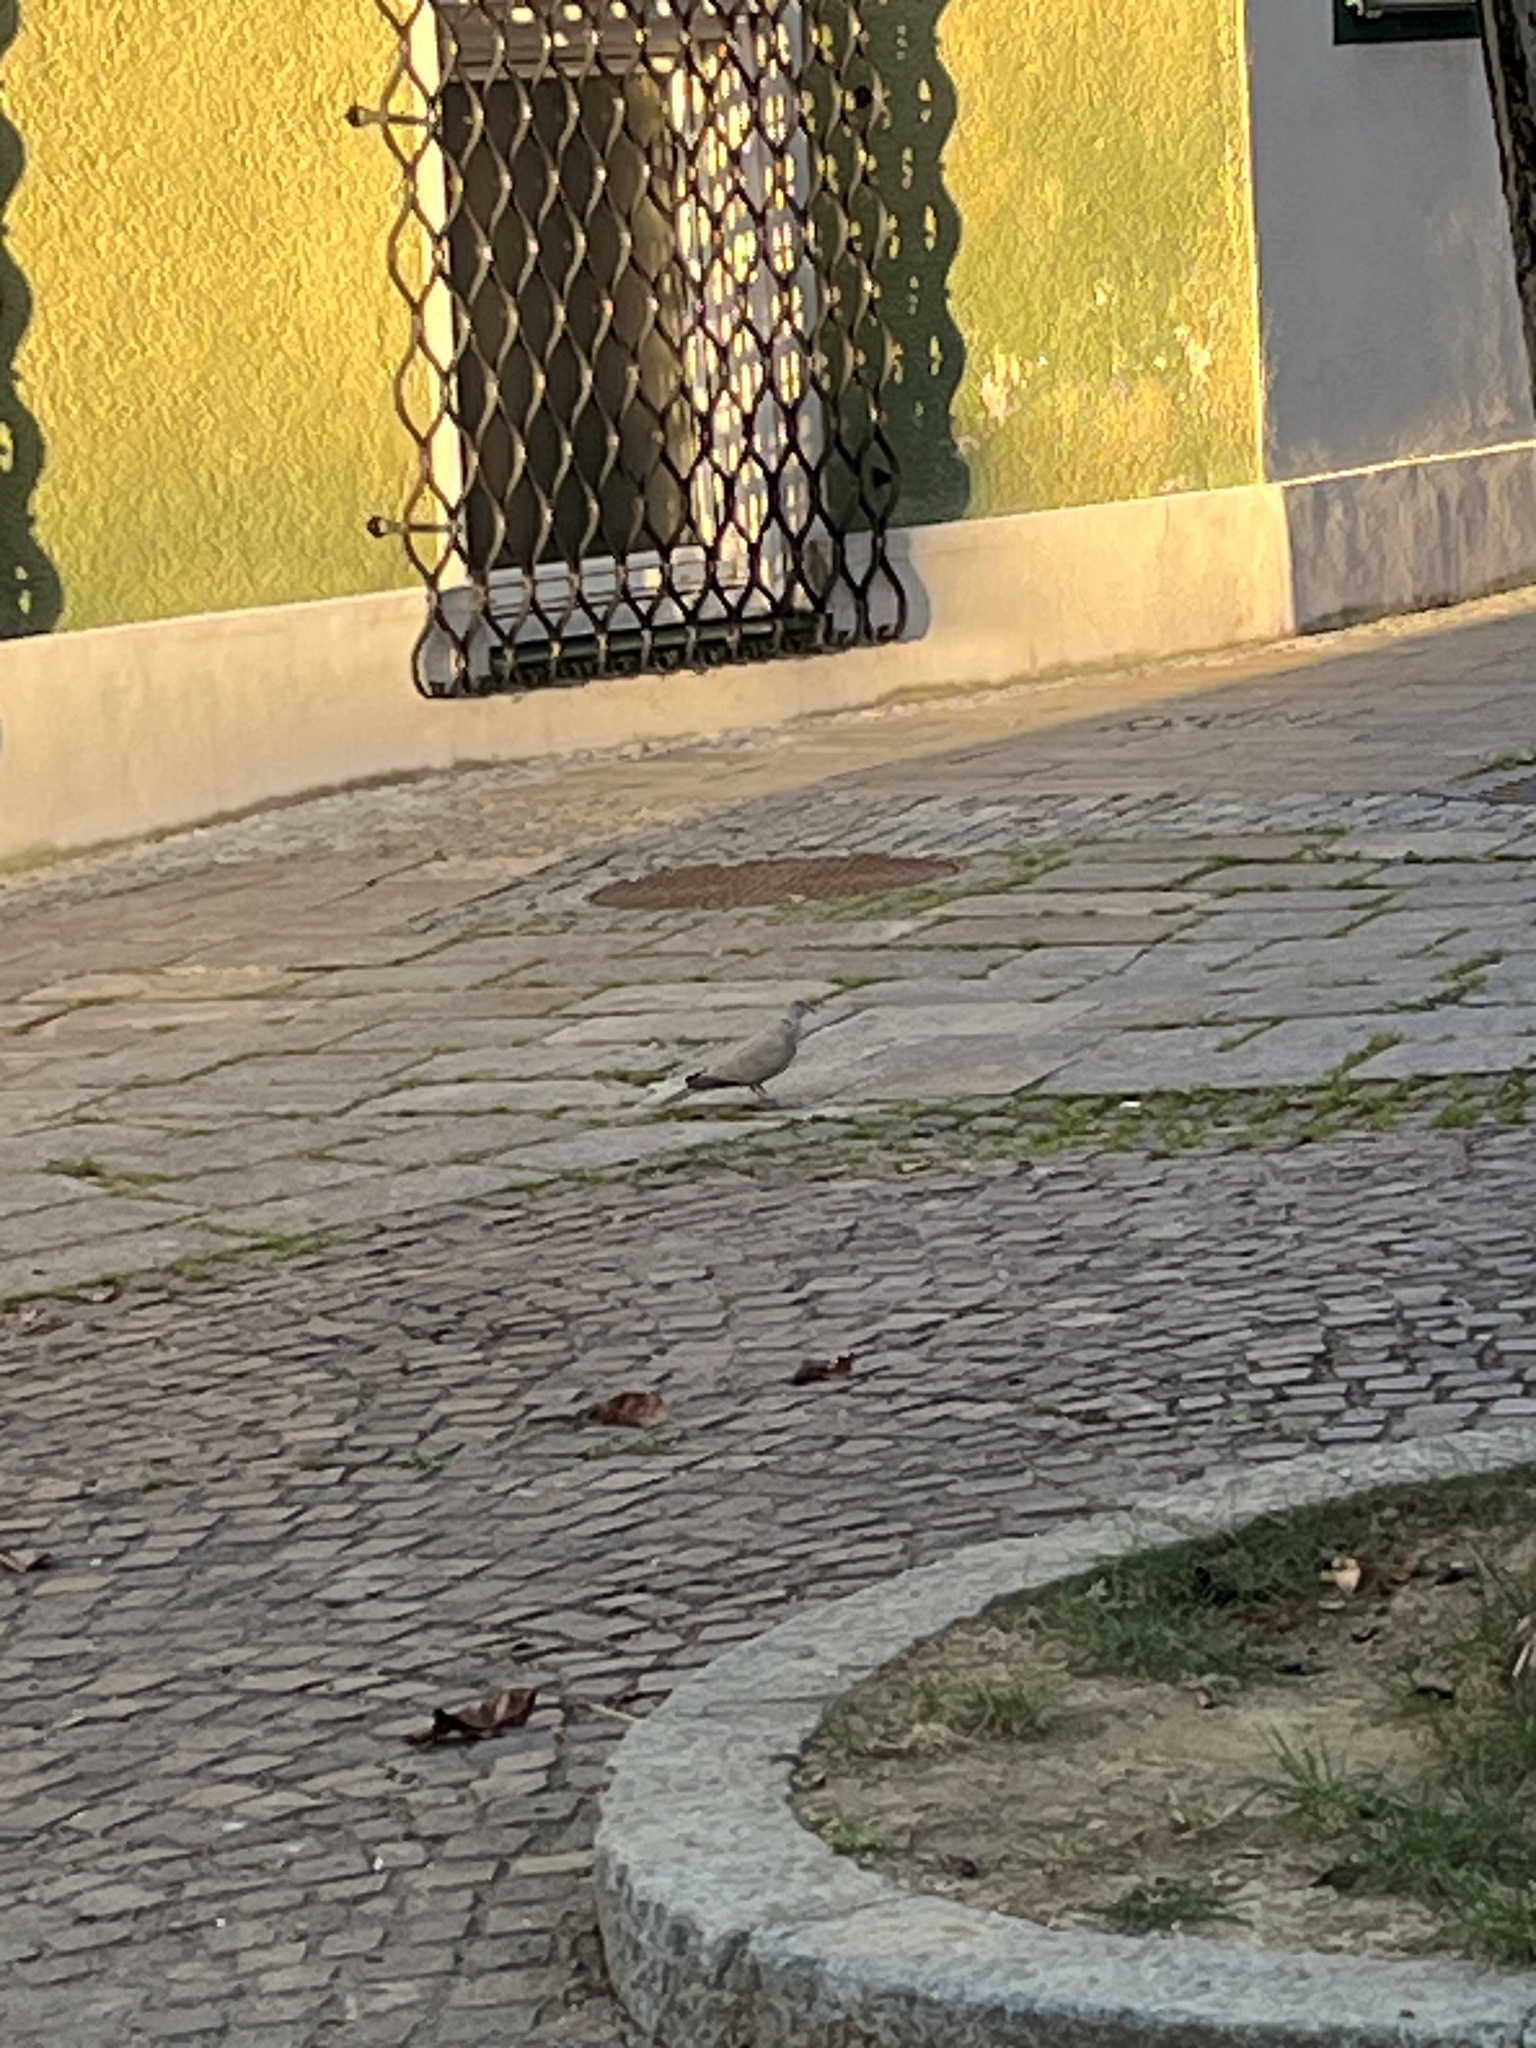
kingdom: Animalia
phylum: Chordata
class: Aves
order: Columbiformes
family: Columbidae
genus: Streptopelia
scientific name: Streptopelia decaocto
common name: Eurasian collared dove
